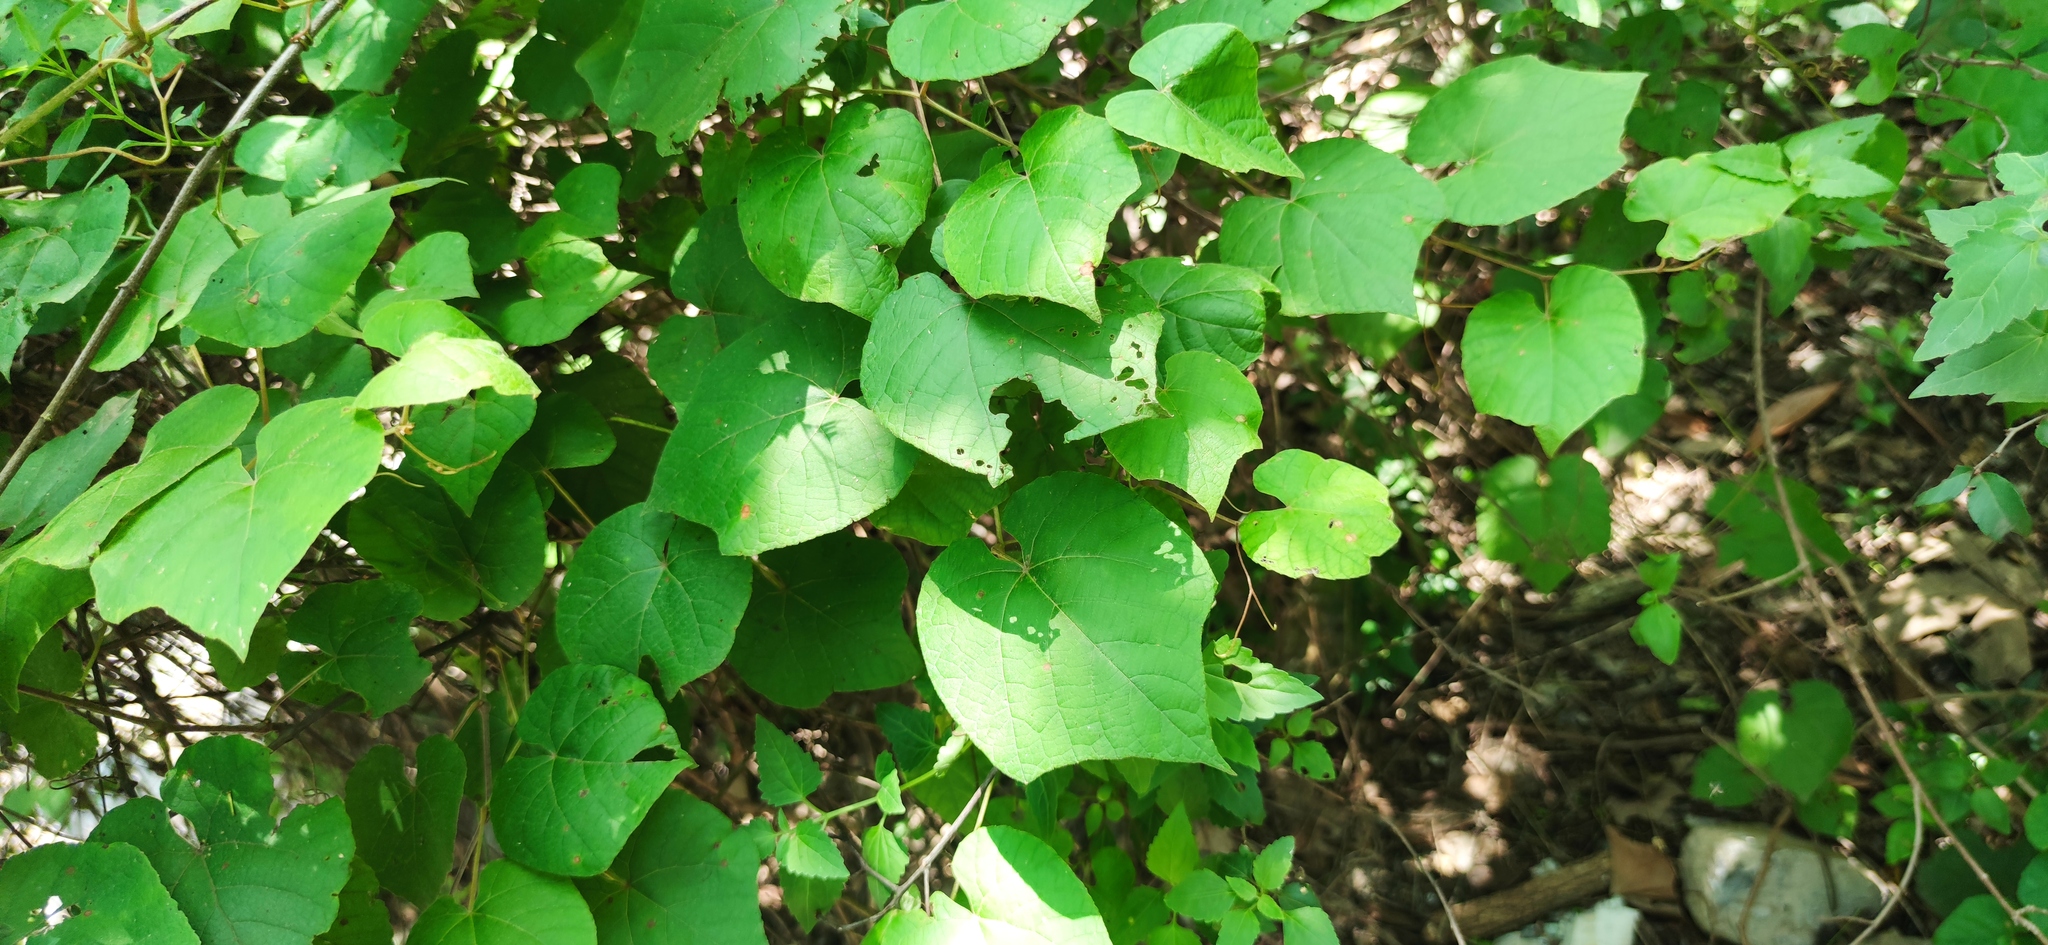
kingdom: Plantae
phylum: Tracheophyta
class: Magnoliopsida
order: Vitales
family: Vitaceae
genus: Vitis
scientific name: Vitis cinerea
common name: Ashy grape
